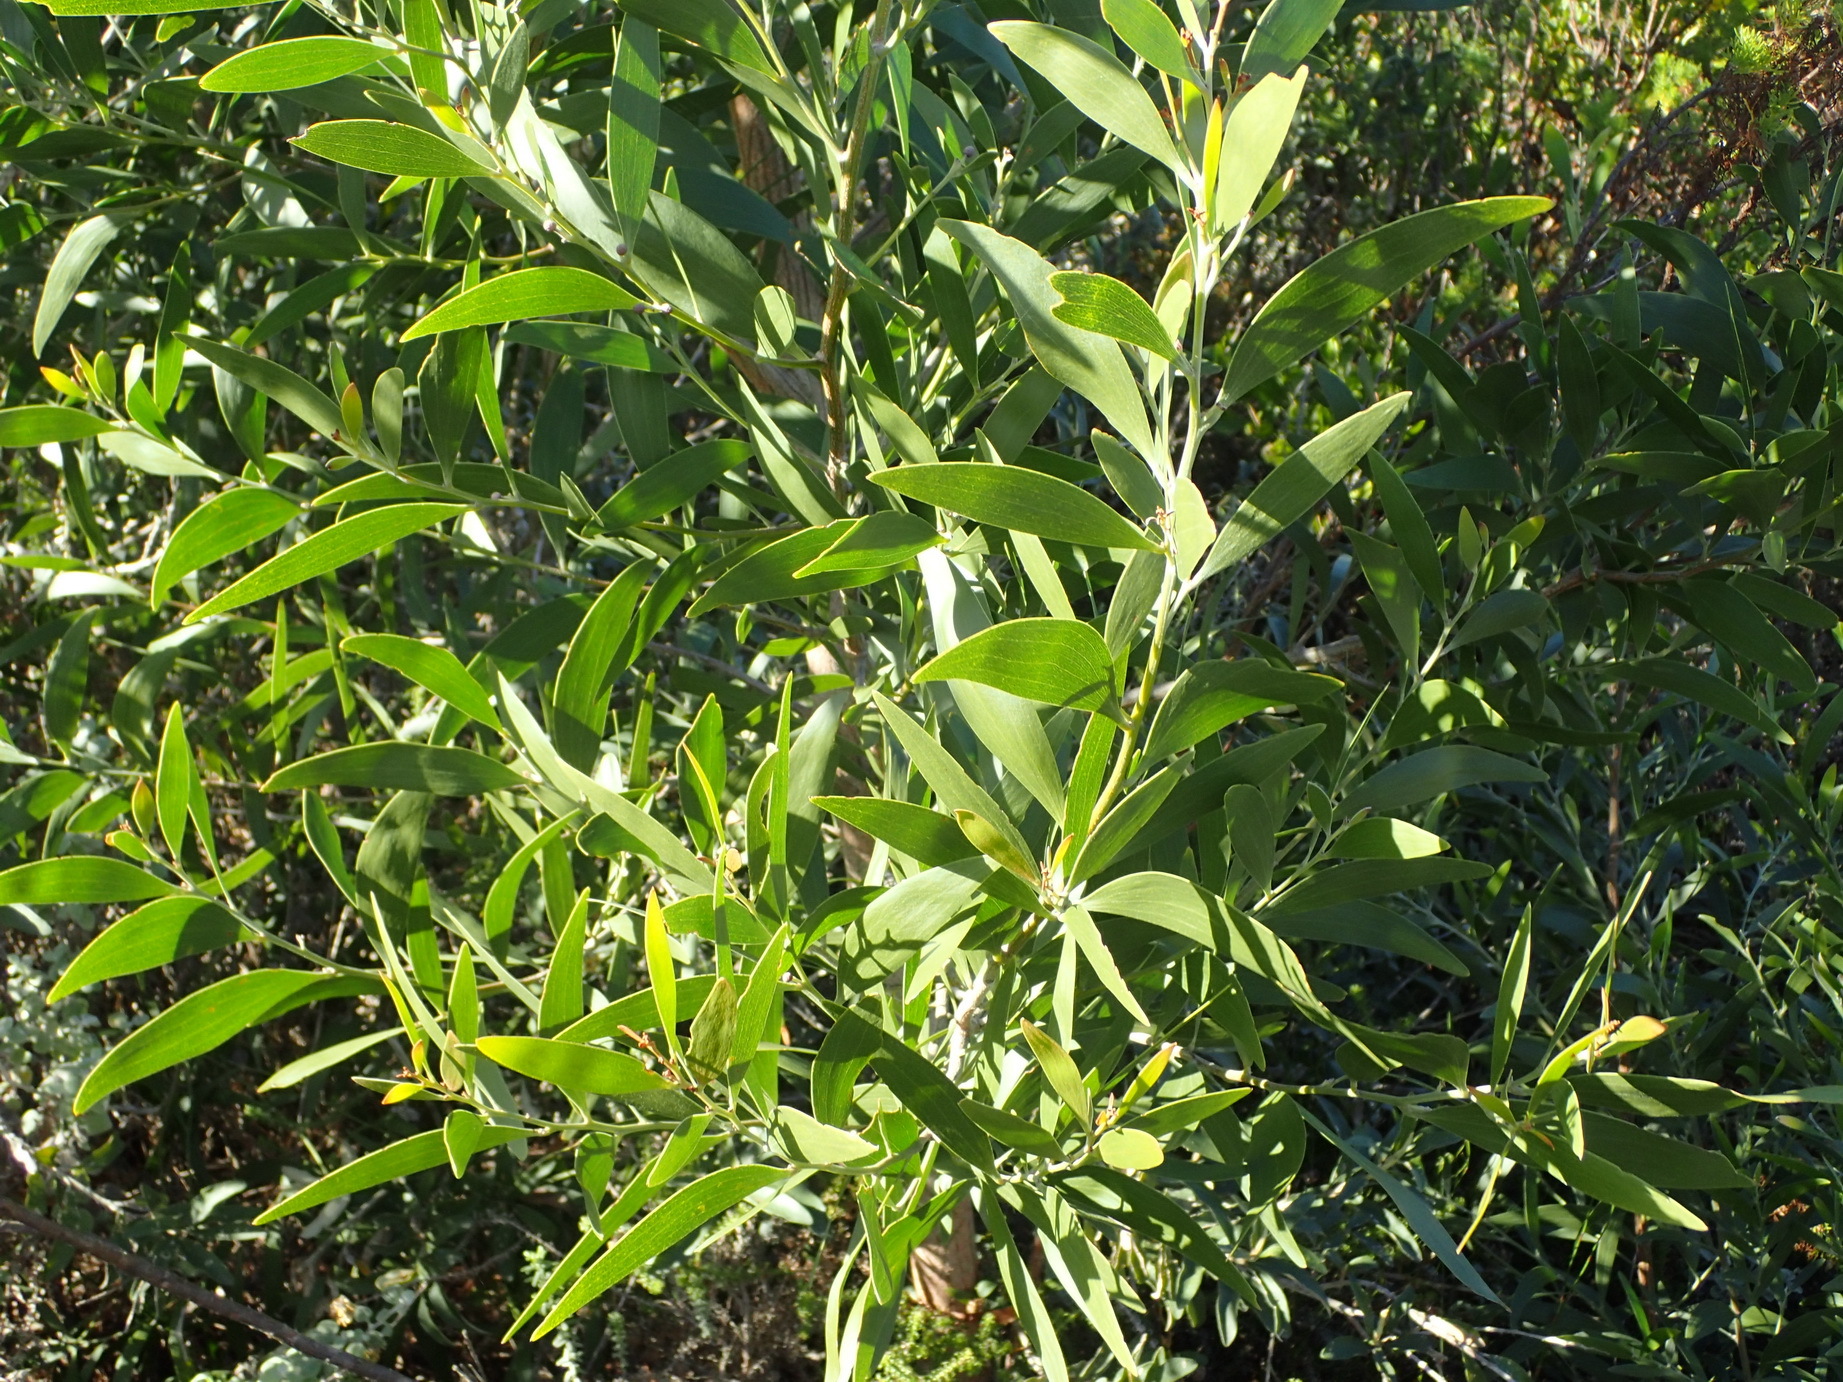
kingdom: Plantae
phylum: Tracheophyta
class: Magnoliopsida
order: Fabales
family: Fabaceae
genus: Acacia
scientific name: Acacia melanoxylon
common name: Blackwood
